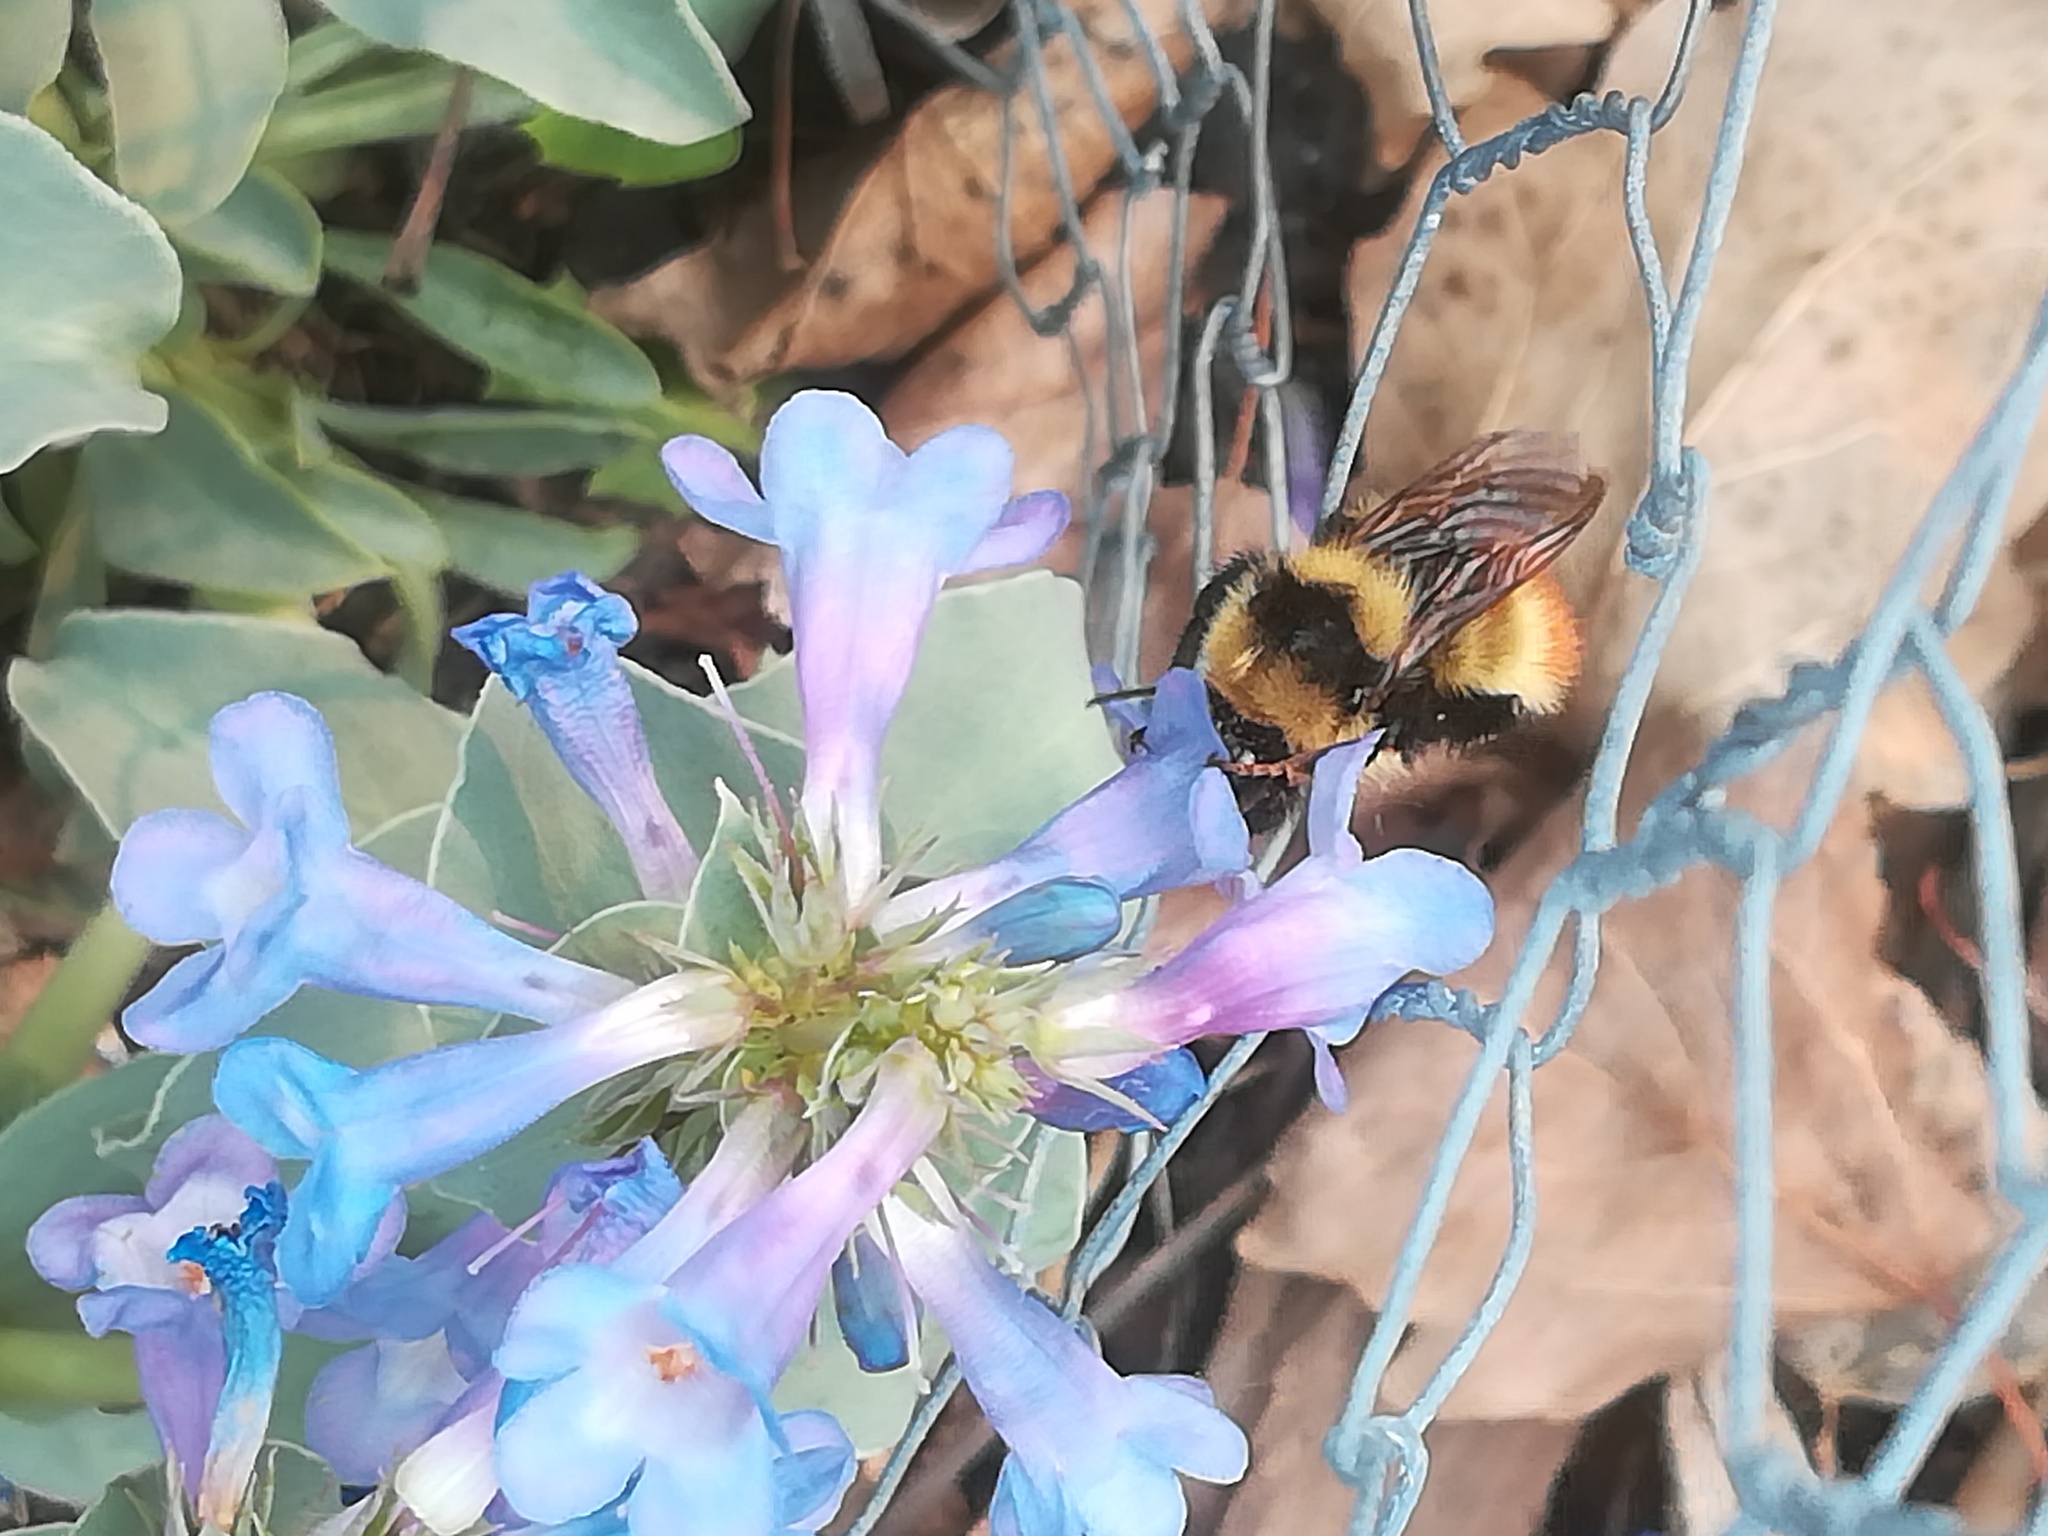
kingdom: Animalia
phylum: Arthropoda
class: Insecta
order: Hymenoptera
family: Apidae
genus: Bombus
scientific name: Bombus centralis
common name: Central bumble bee
